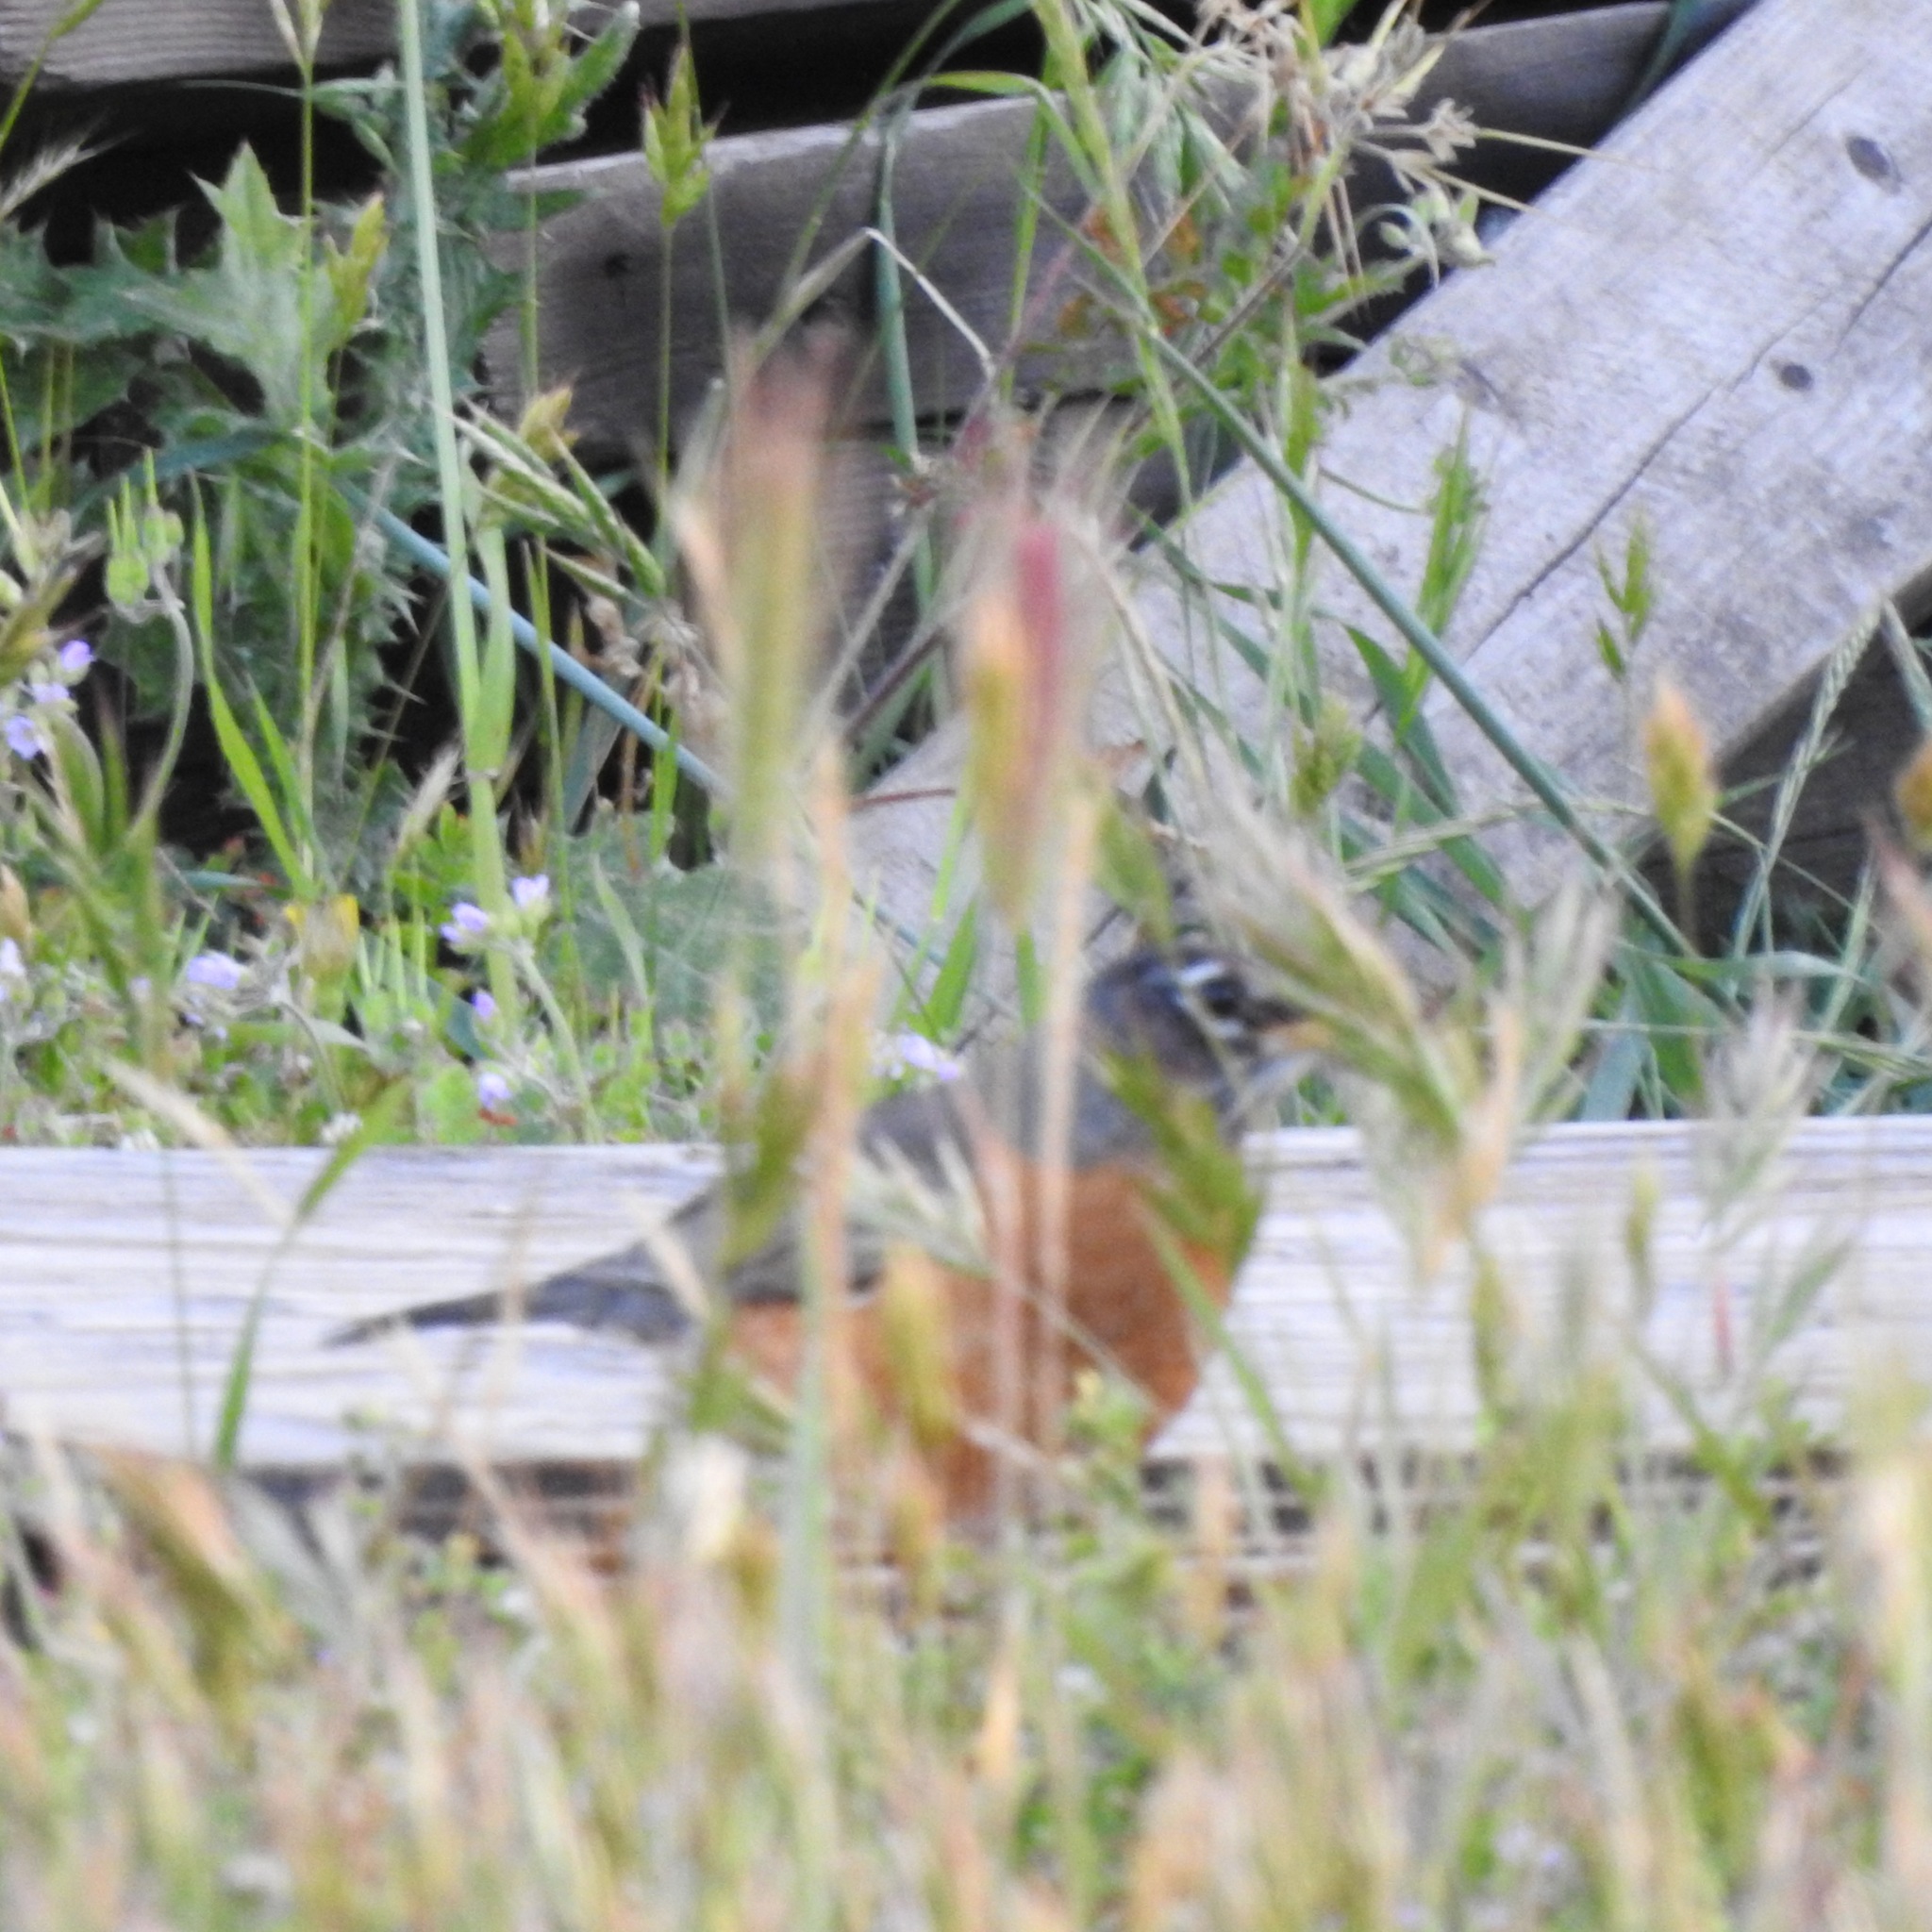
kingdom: Animalia
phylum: Chordata
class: Aves
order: Passeriformes
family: Turdidae
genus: Turdus
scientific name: Turdus migratorius
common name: American robin
